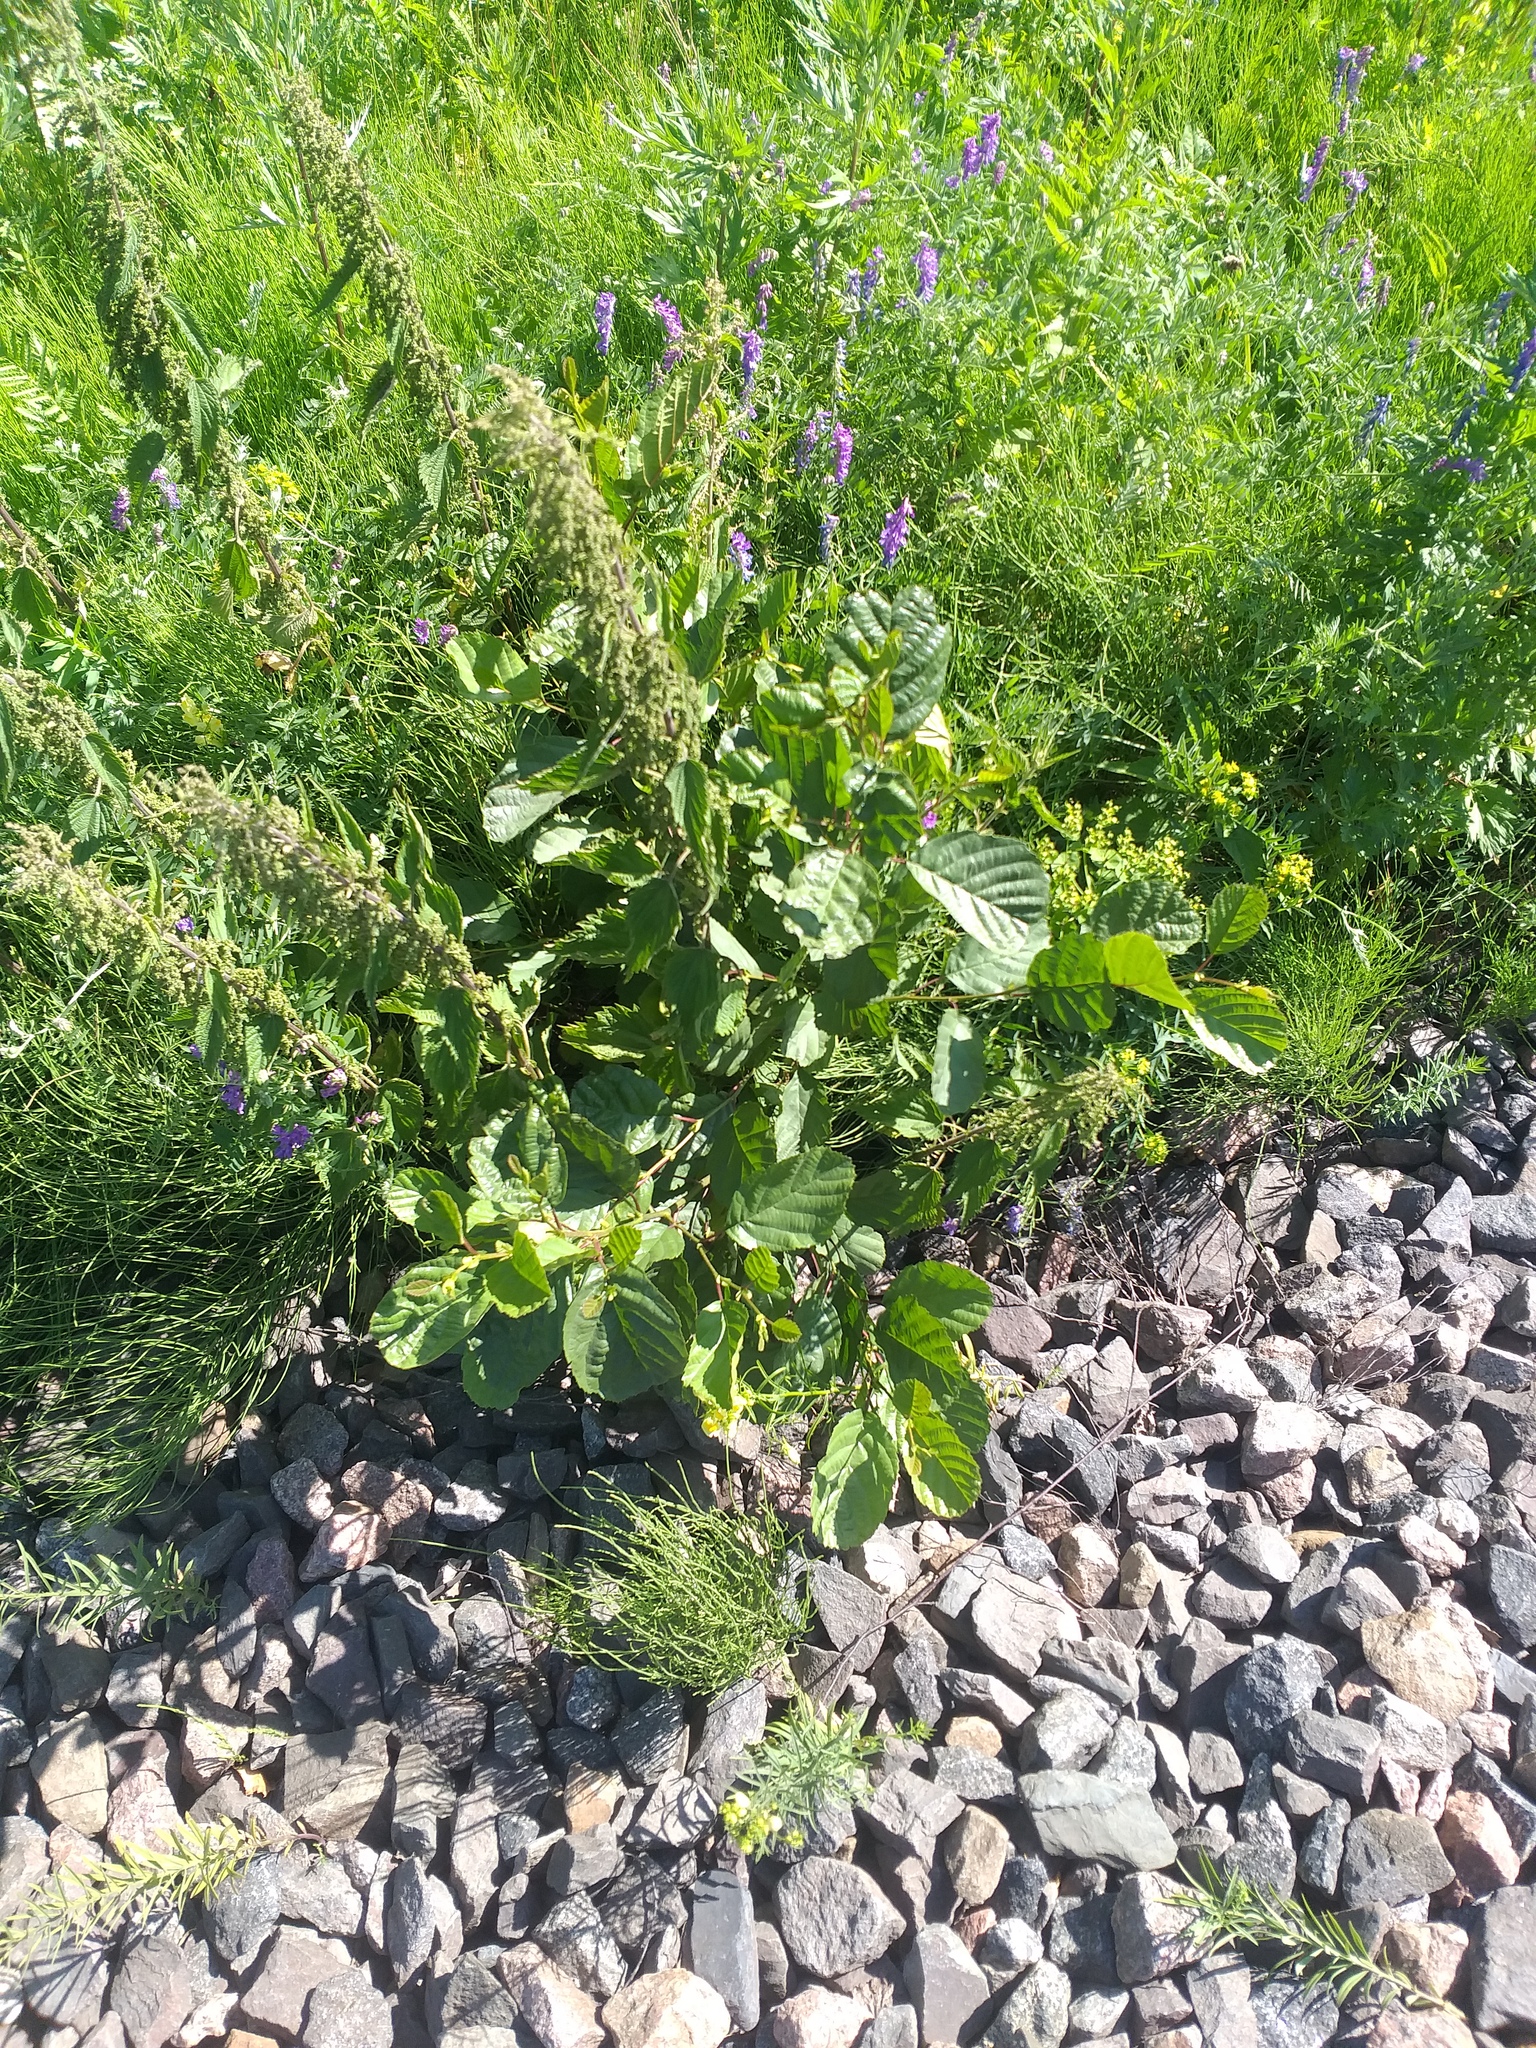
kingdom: Plantae
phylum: Tracheophyta
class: Magnoliopsida
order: Fagales
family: Betulaceae
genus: Alnus
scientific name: Alnus glutinosa
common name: Black alder
